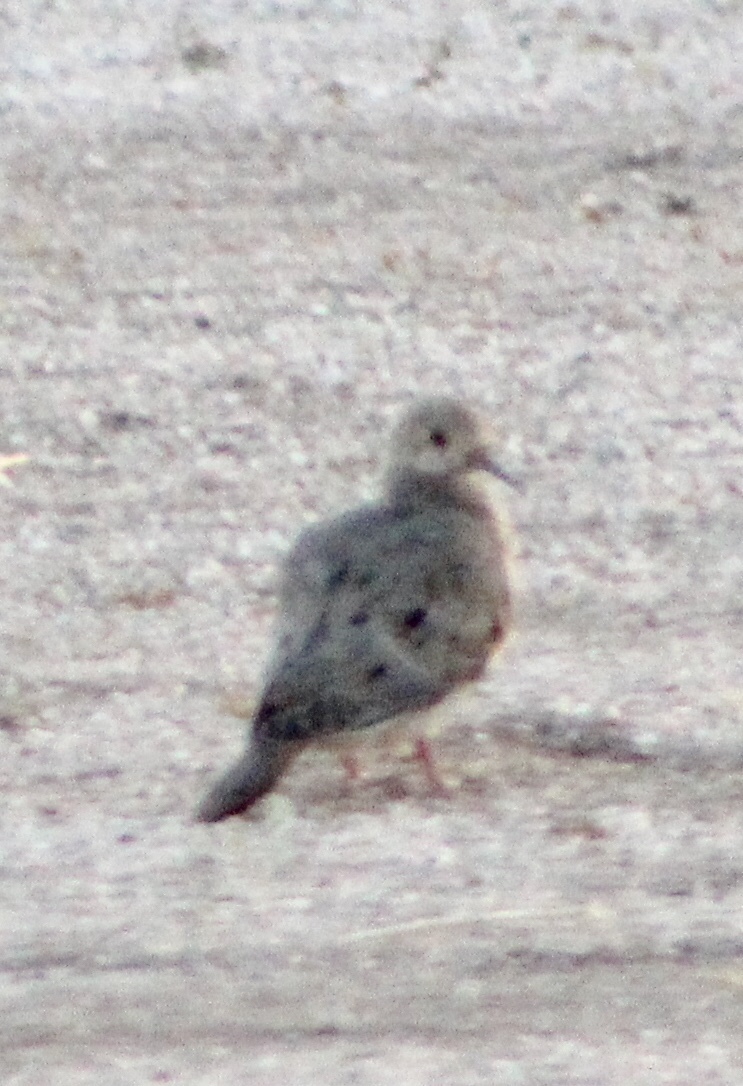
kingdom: Animalia
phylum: Chordata
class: Aves
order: Columbiformes
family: Columbidae
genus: Zenaida
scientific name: Zenaida macroura
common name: Mourning dove
